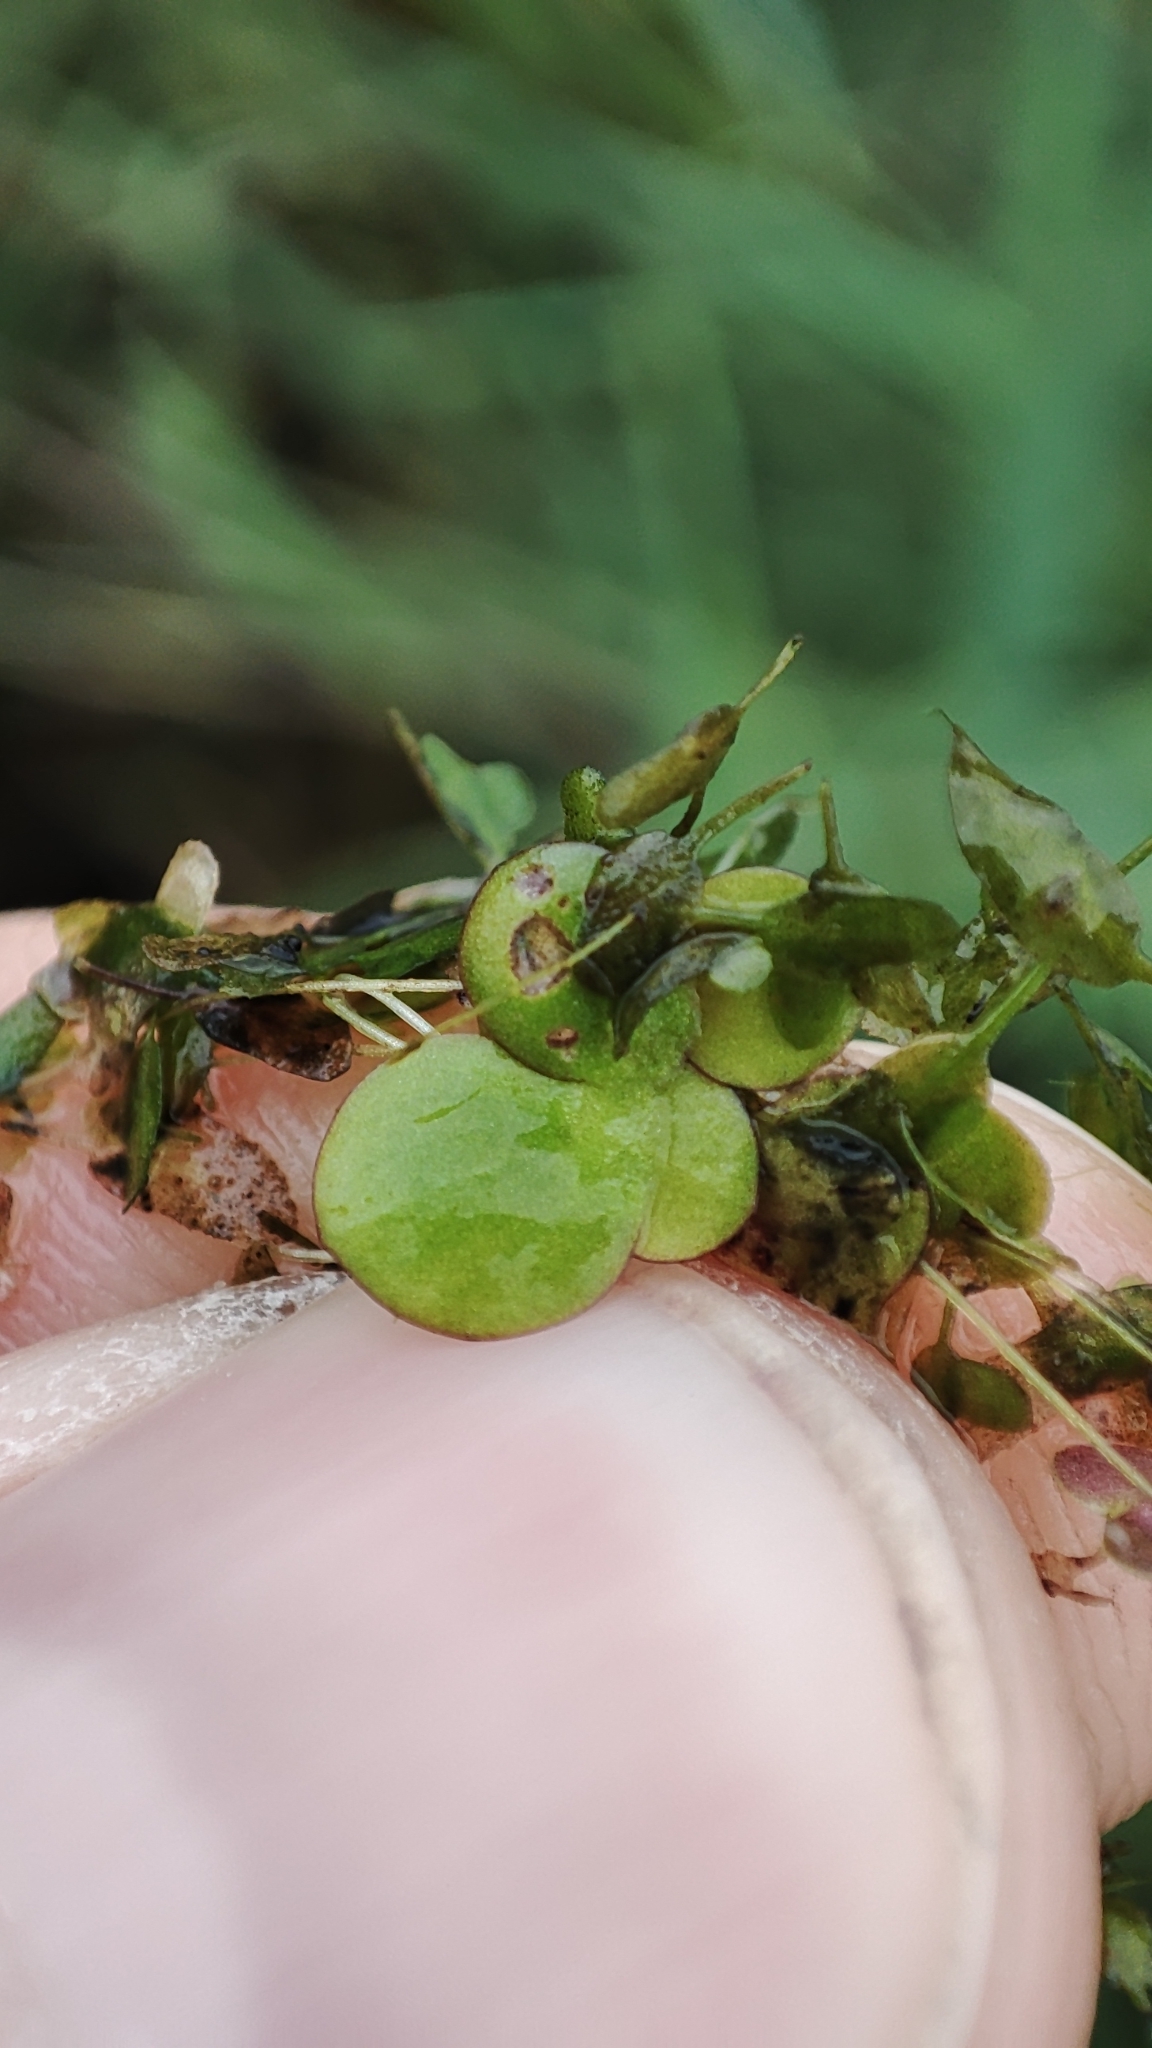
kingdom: Plantae
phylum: Tracheophyta
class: Liliopsida
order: Alismatales
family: Araceae
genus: Spirodela
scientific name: Spirodela polyrhiza
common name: Great duckweed
